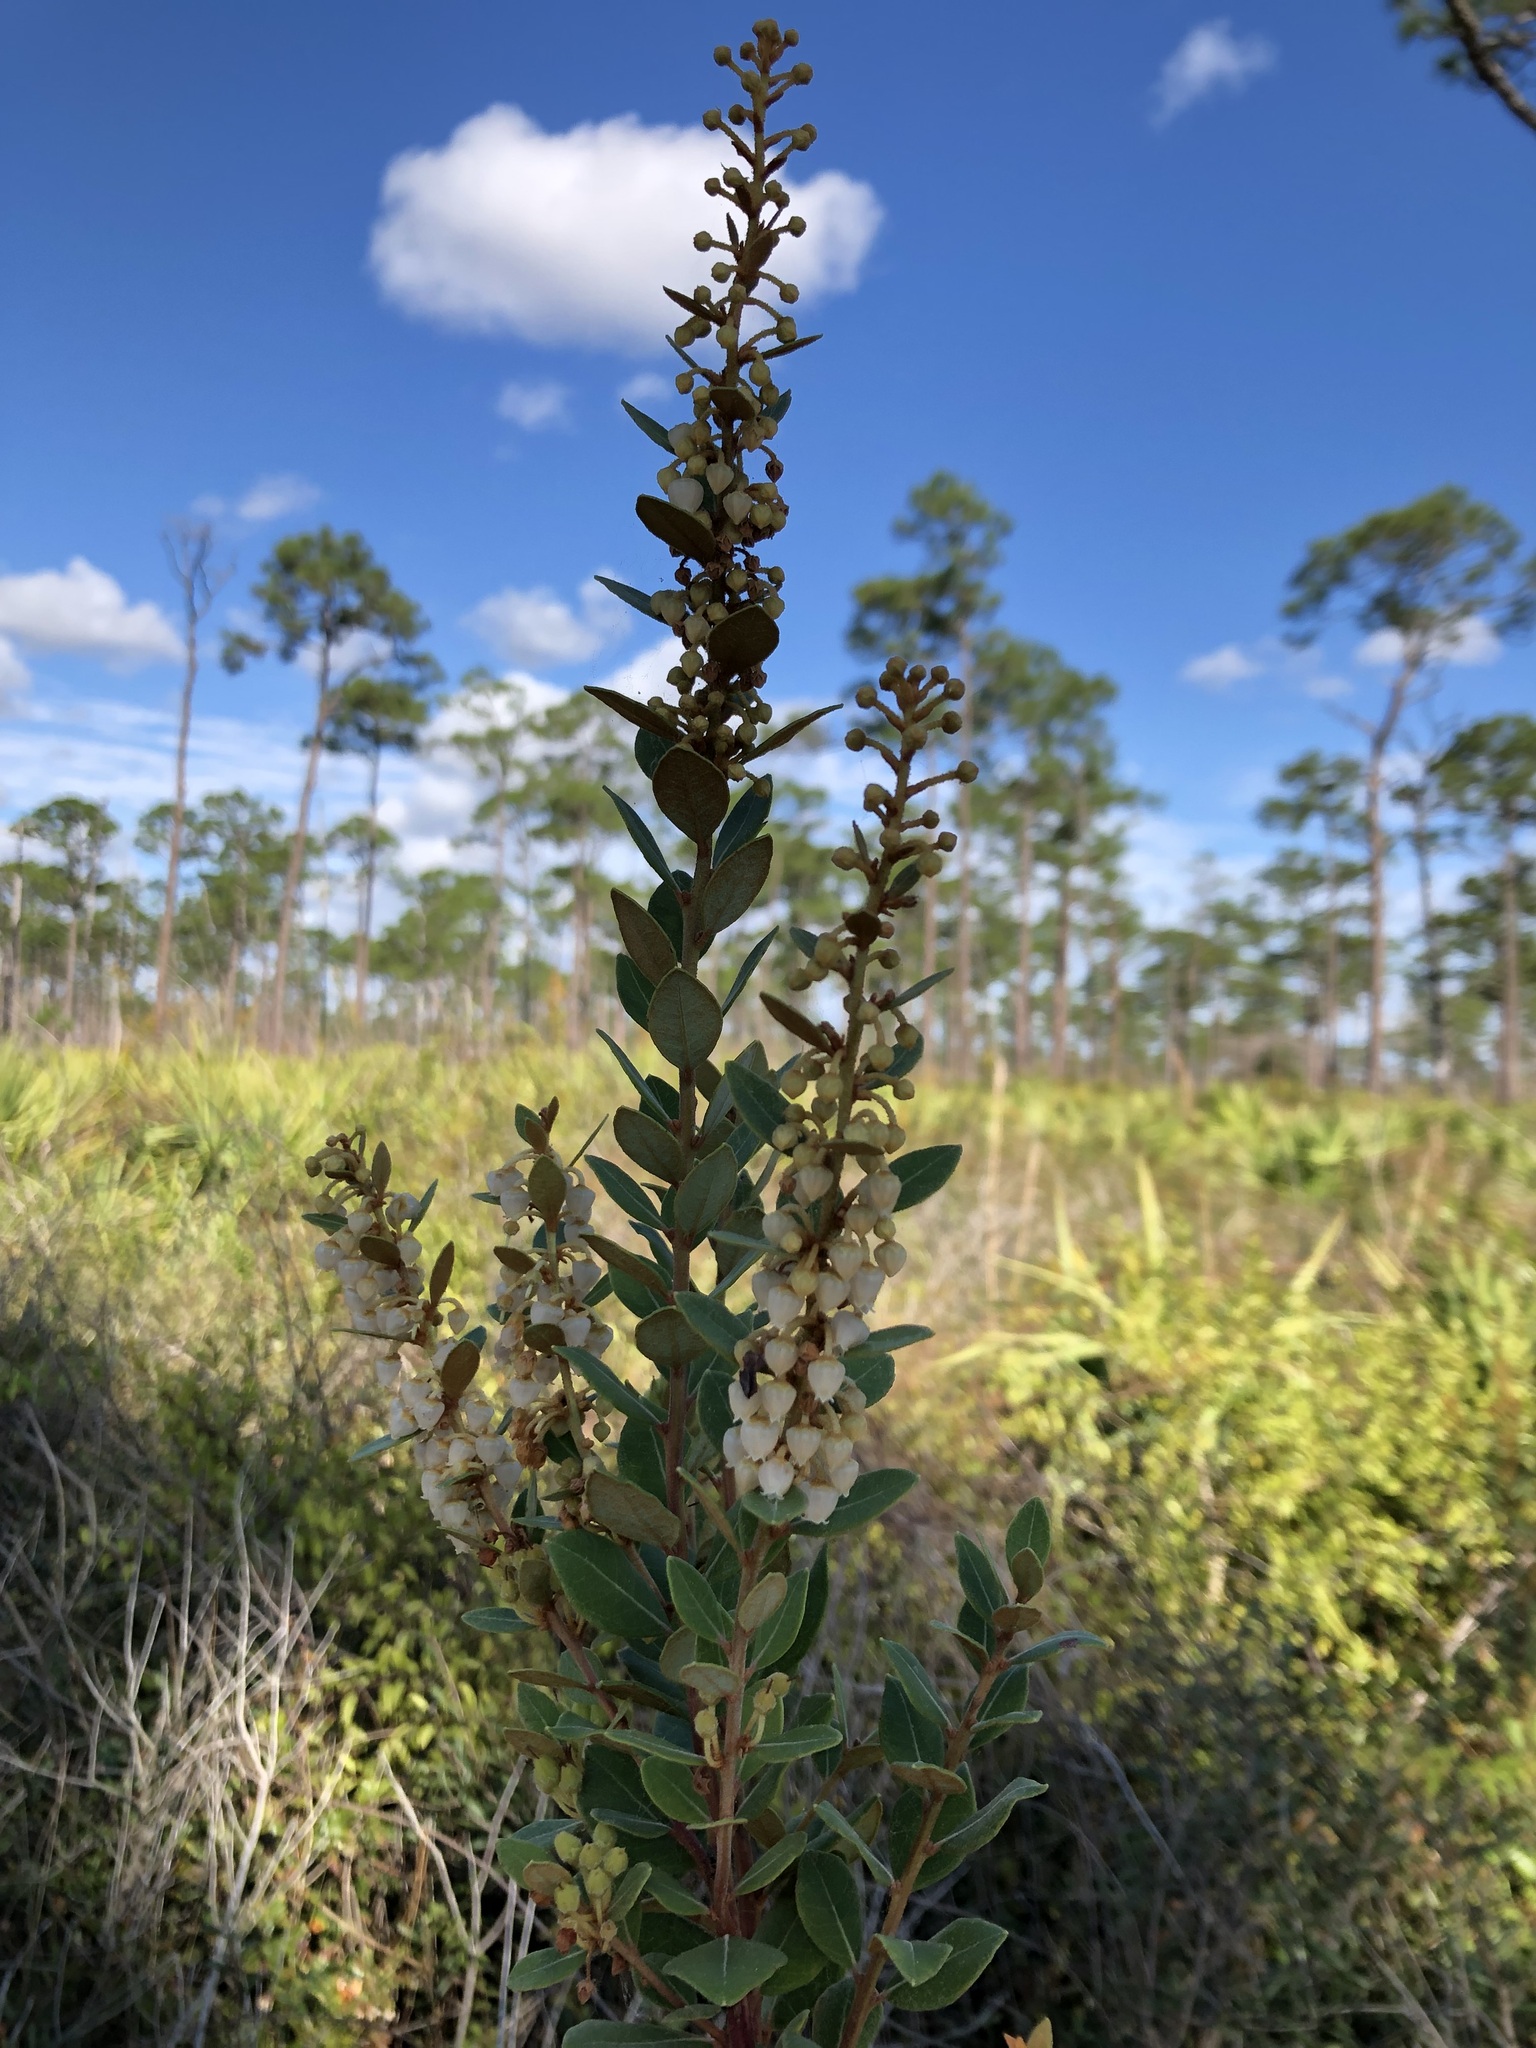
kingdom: Plantae
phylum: Tracheophyta
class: Magnoliopsida
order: Ericales
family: Ericaceae
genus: Lyonia
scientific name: Lyonia fruticosa
